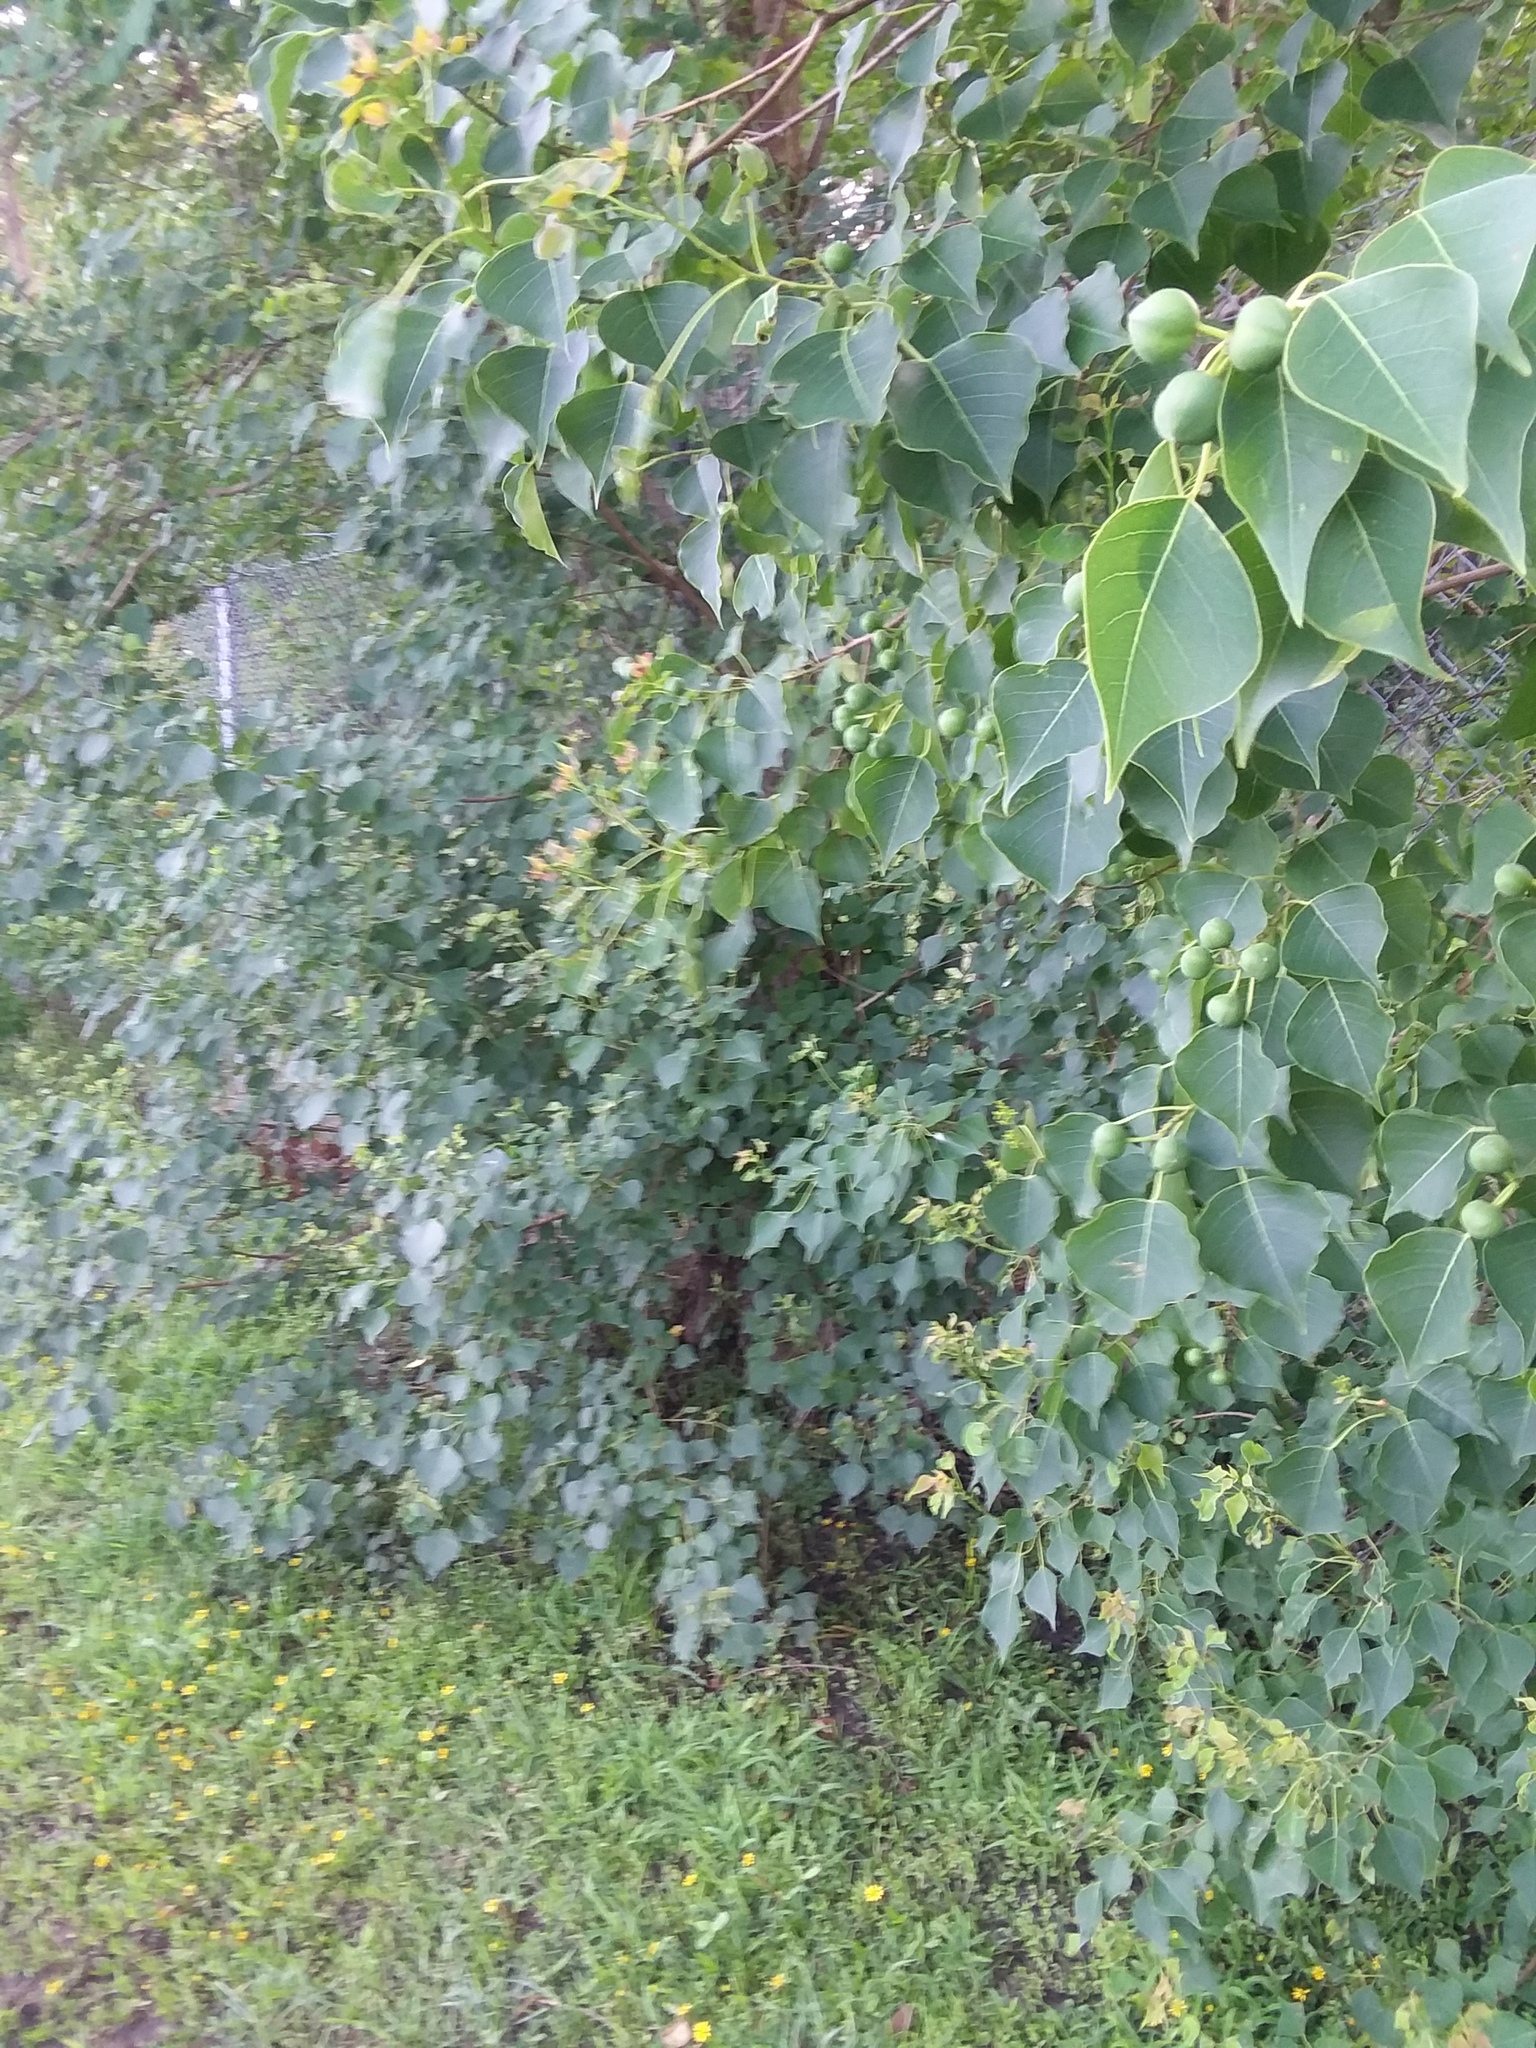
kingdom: Plantae
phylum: Tracheophyta
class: Magnoliopsida
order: Malpighiales
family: Euphorbiaceae
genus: Triadica
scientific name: Triadica sebifera
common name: Chinese tallow
